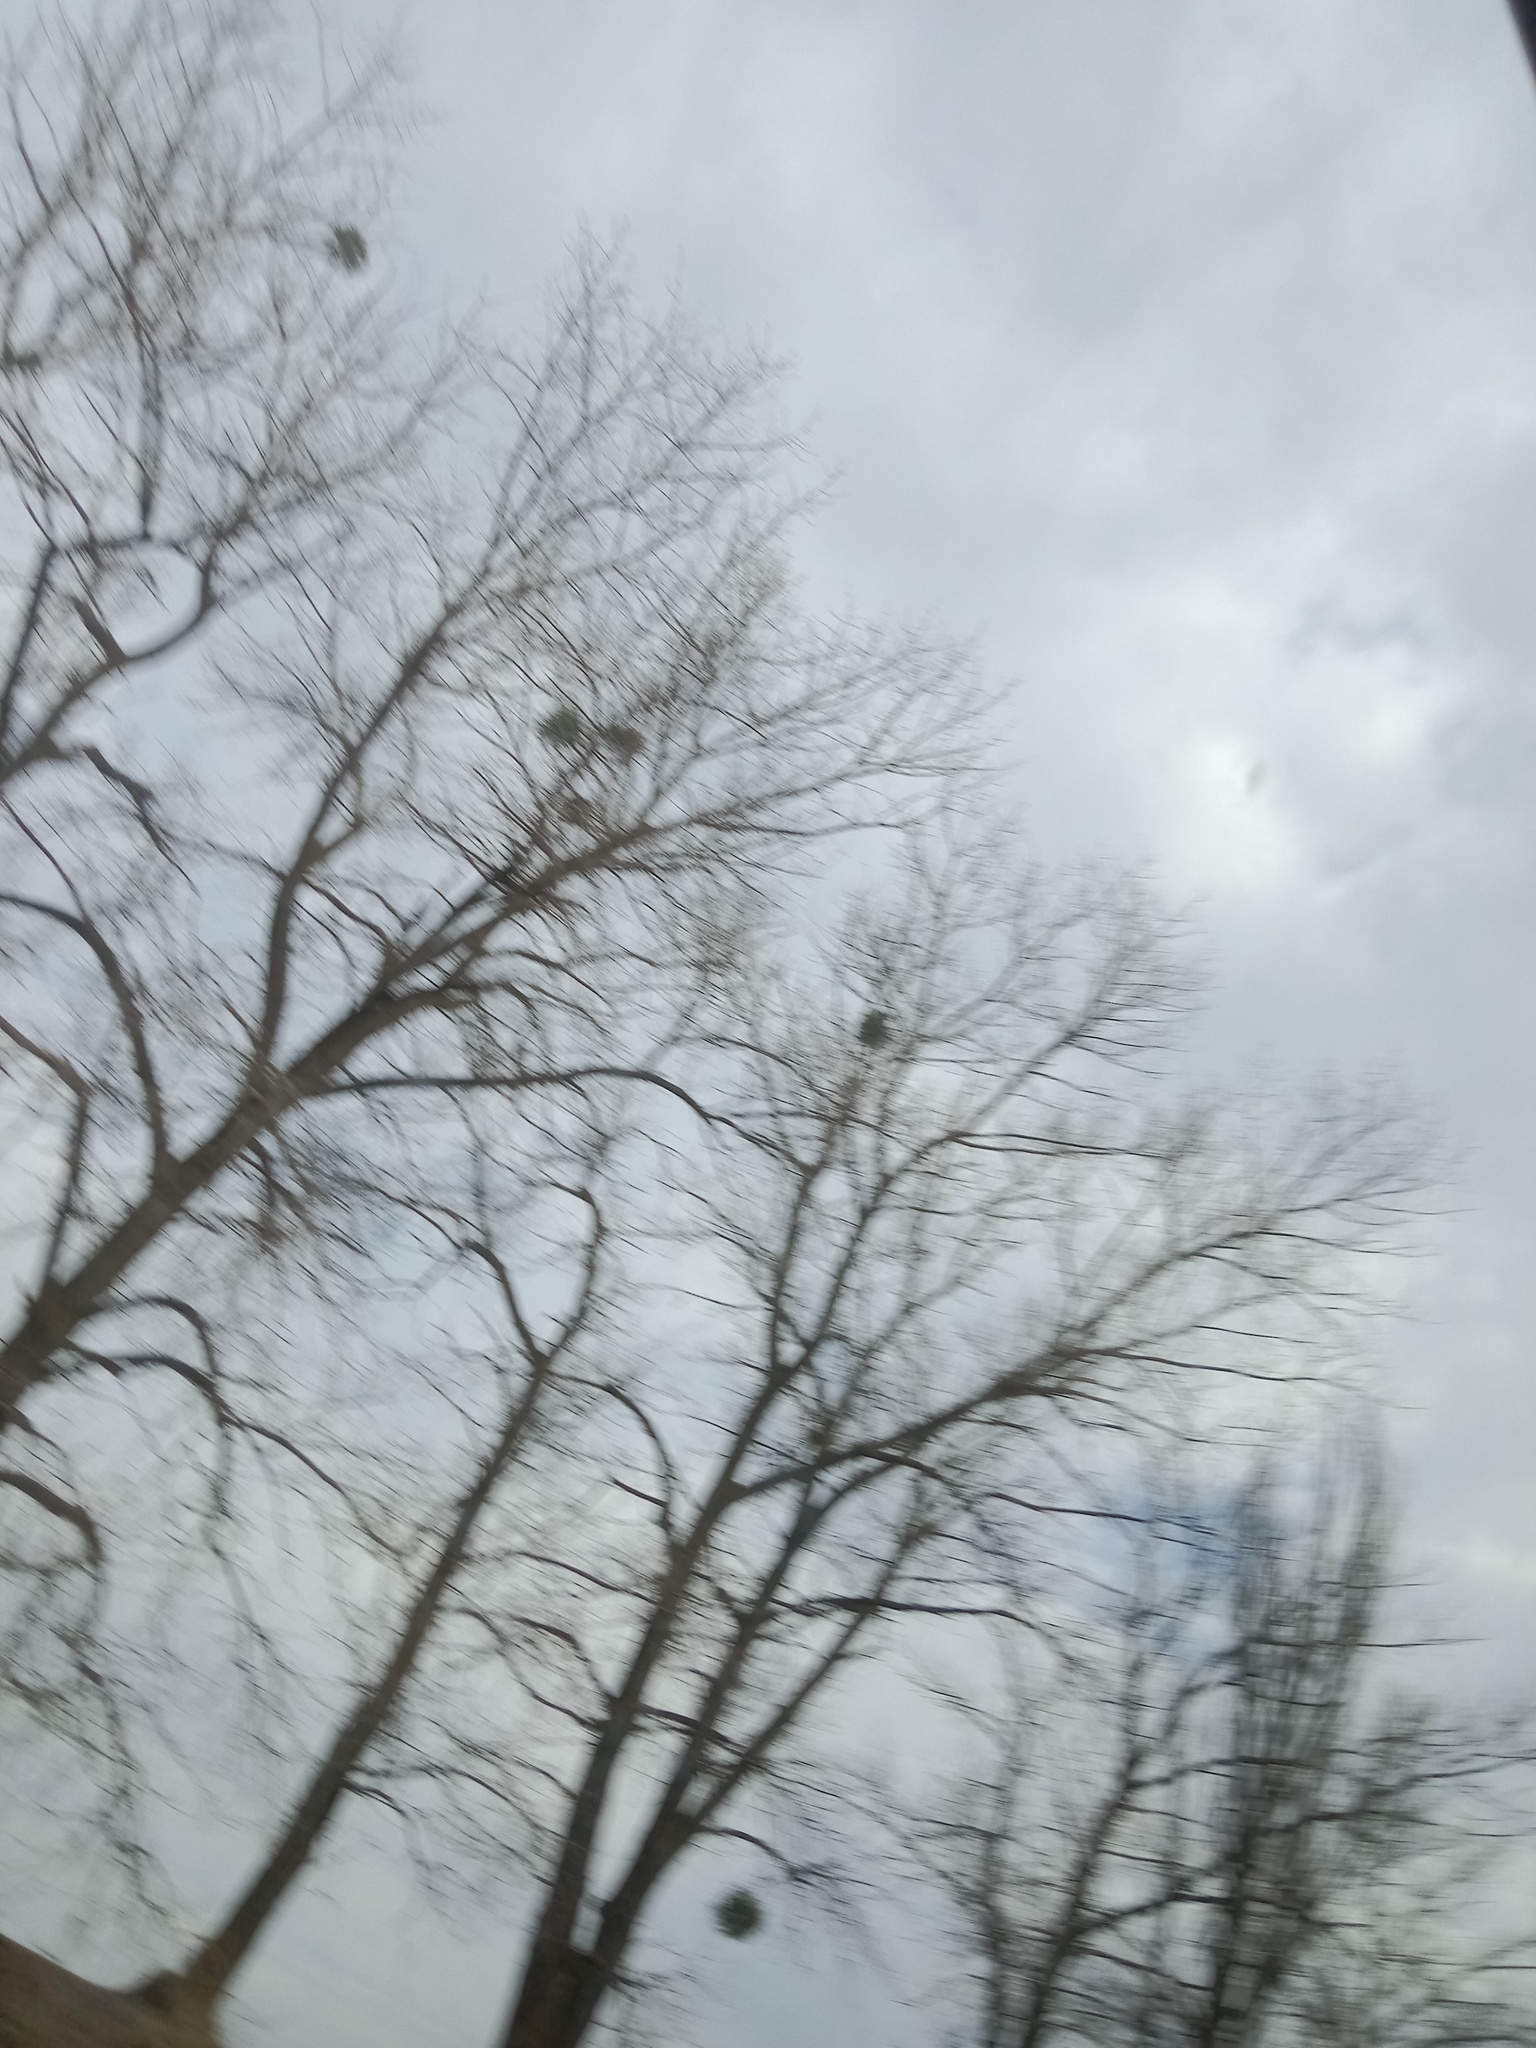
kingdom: Plantae
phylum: Tracheophyta
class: Magnoliopsida
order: Santalales
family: Viscaceae
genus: Viscum
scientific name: Viscum album
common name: Mistletoe
